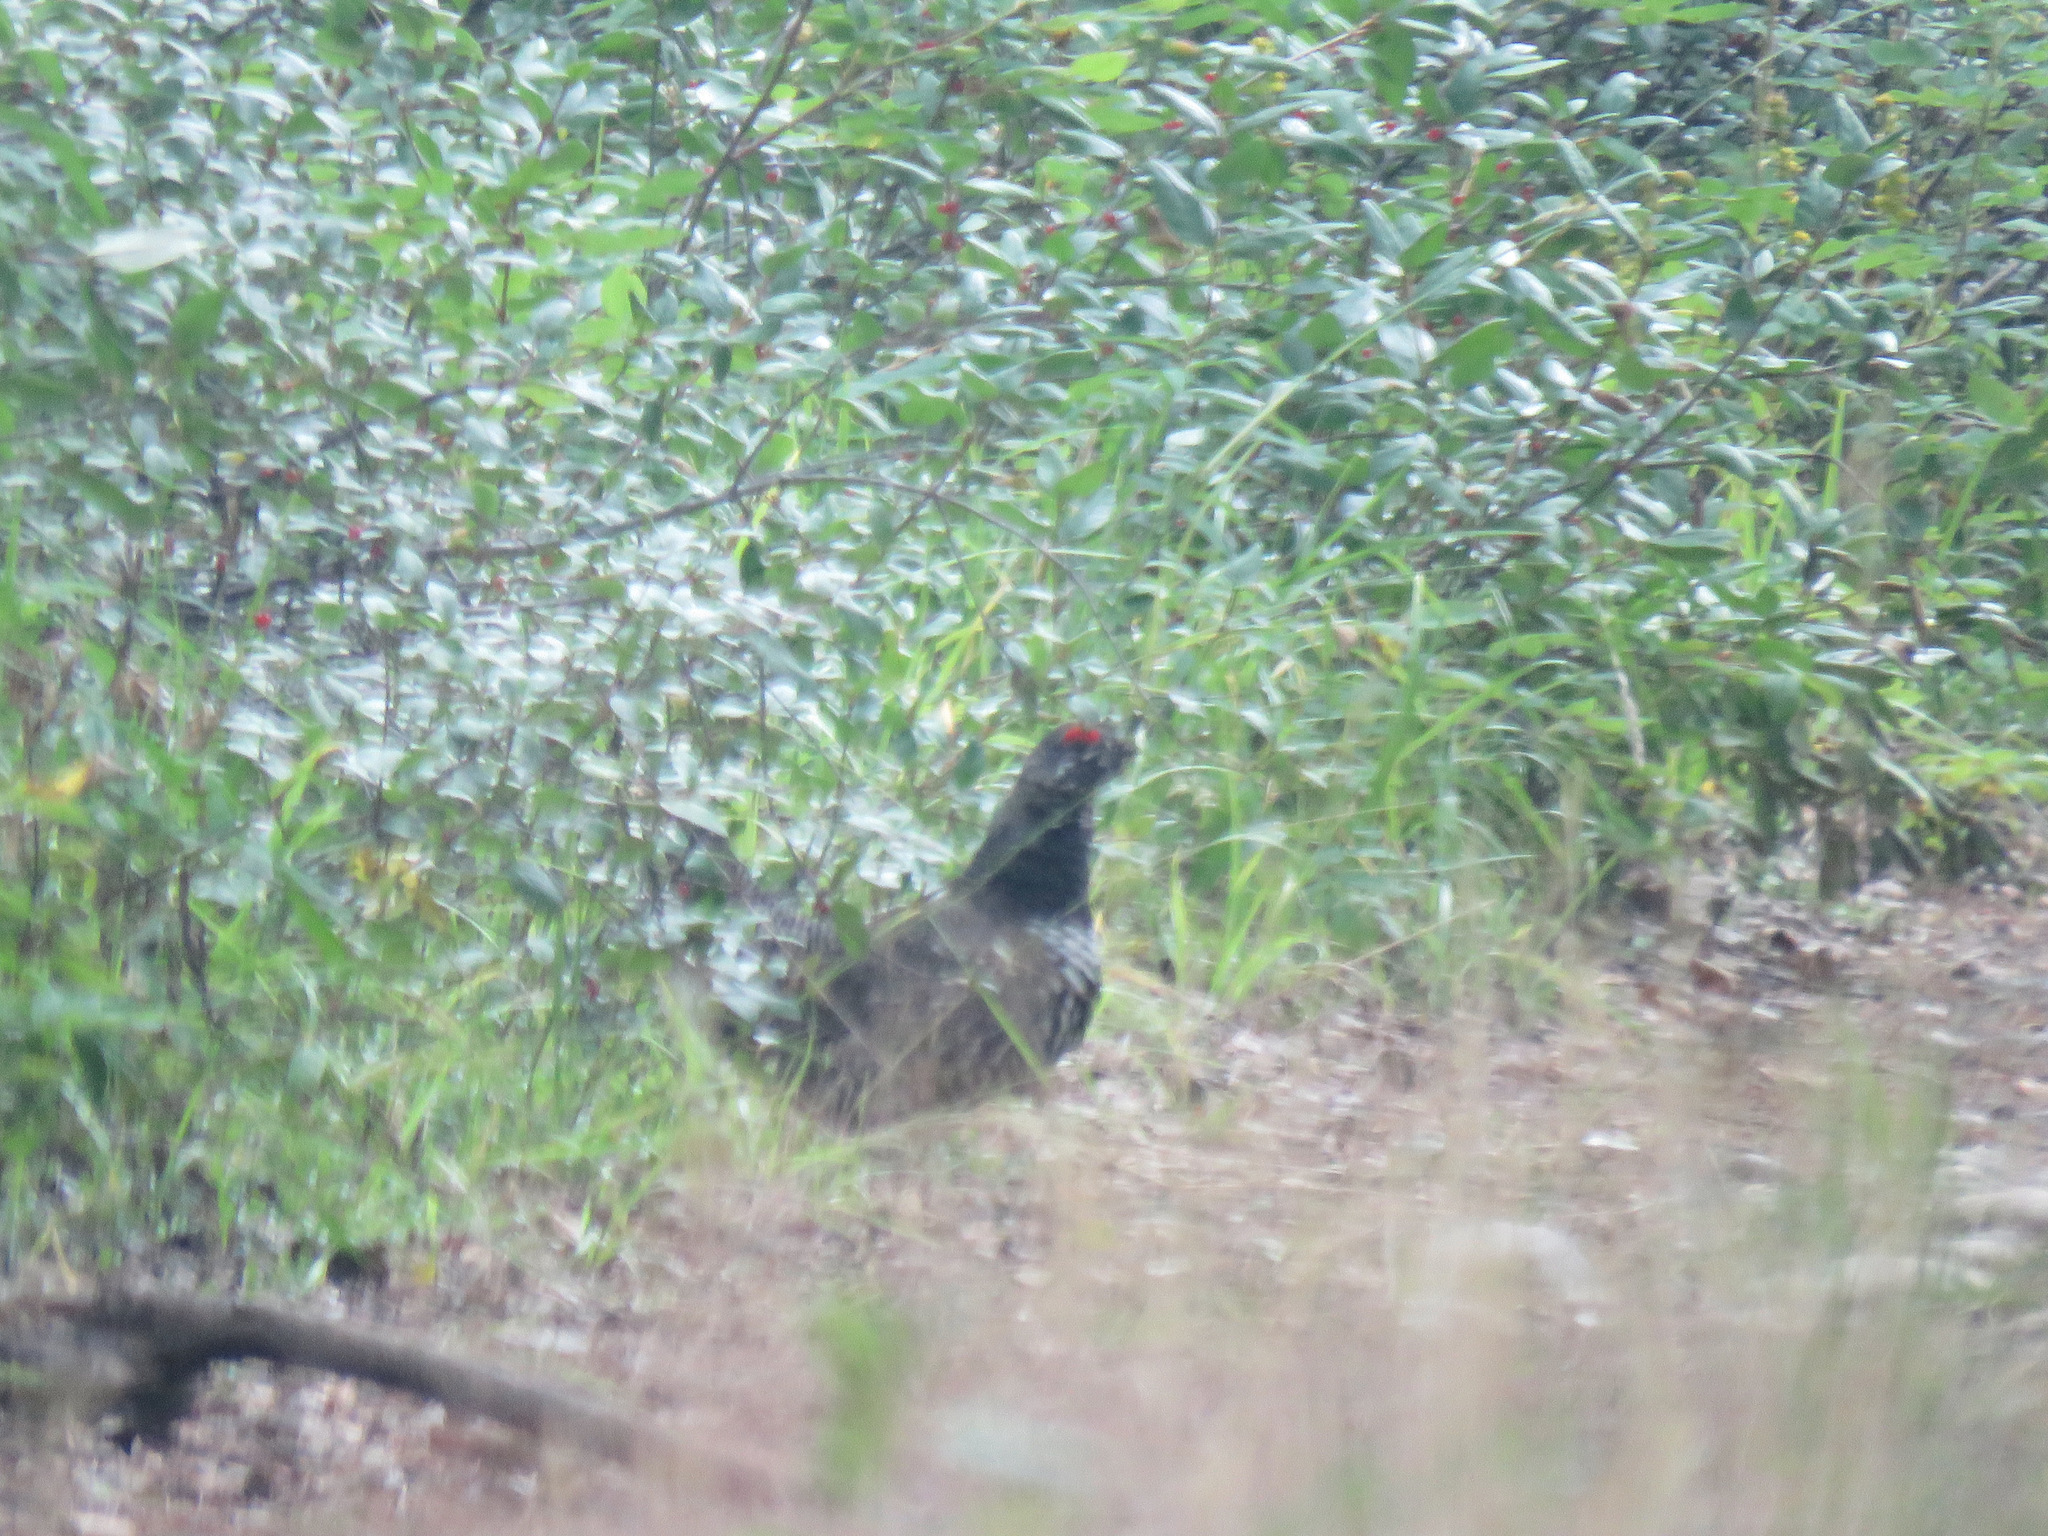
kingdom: Animalia
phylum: Chordata
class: Aves
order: Galliformes
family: Phasianidae
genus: Canachites
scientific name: Canachites canadensis
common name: Spruce grouse
